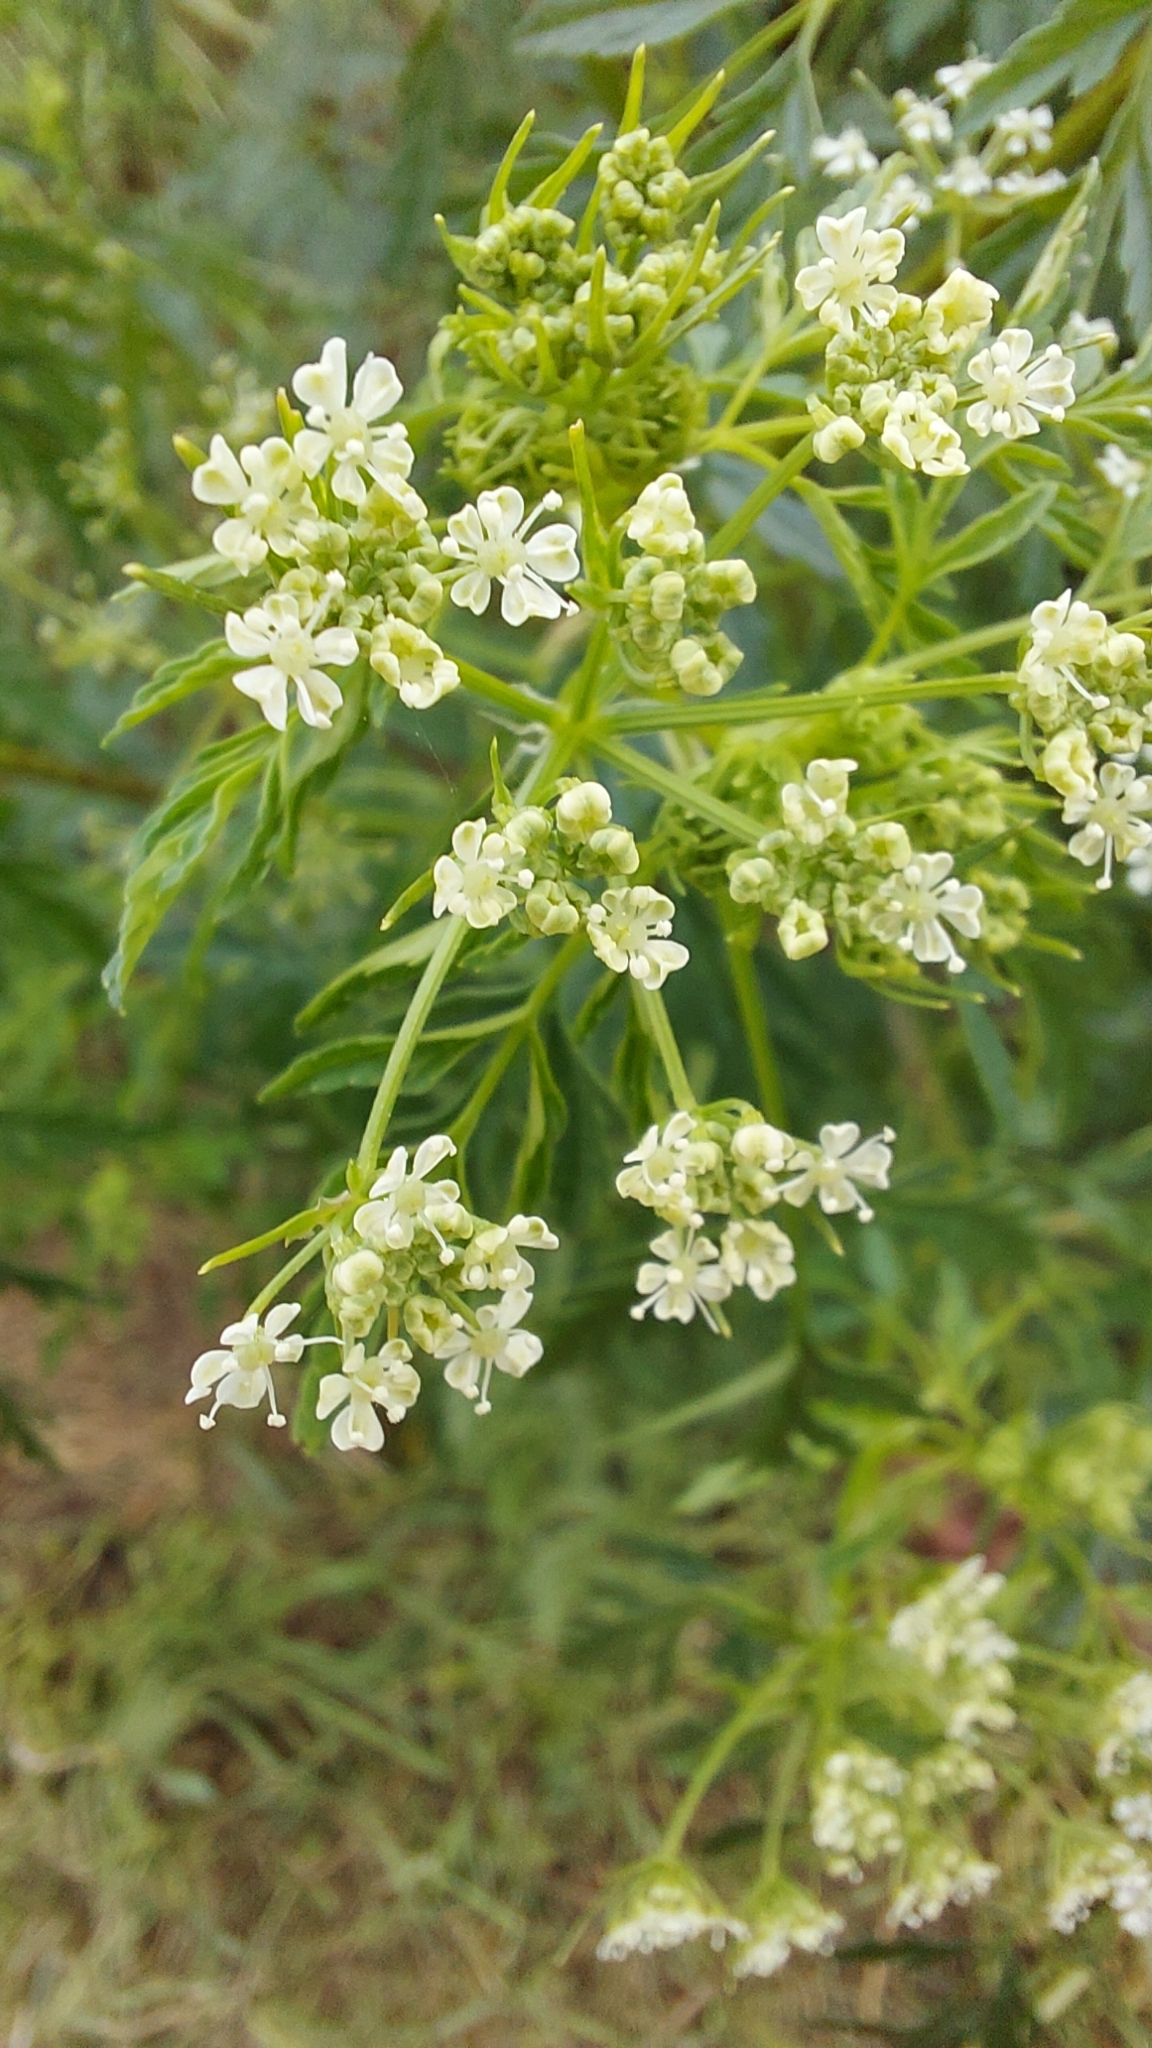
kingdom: Plantae
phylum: Tracheophyta
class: Magnoliopsida
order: Apiales
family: Apiaceae
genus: Conium
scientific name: Conium maculatum
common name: Hemlock
